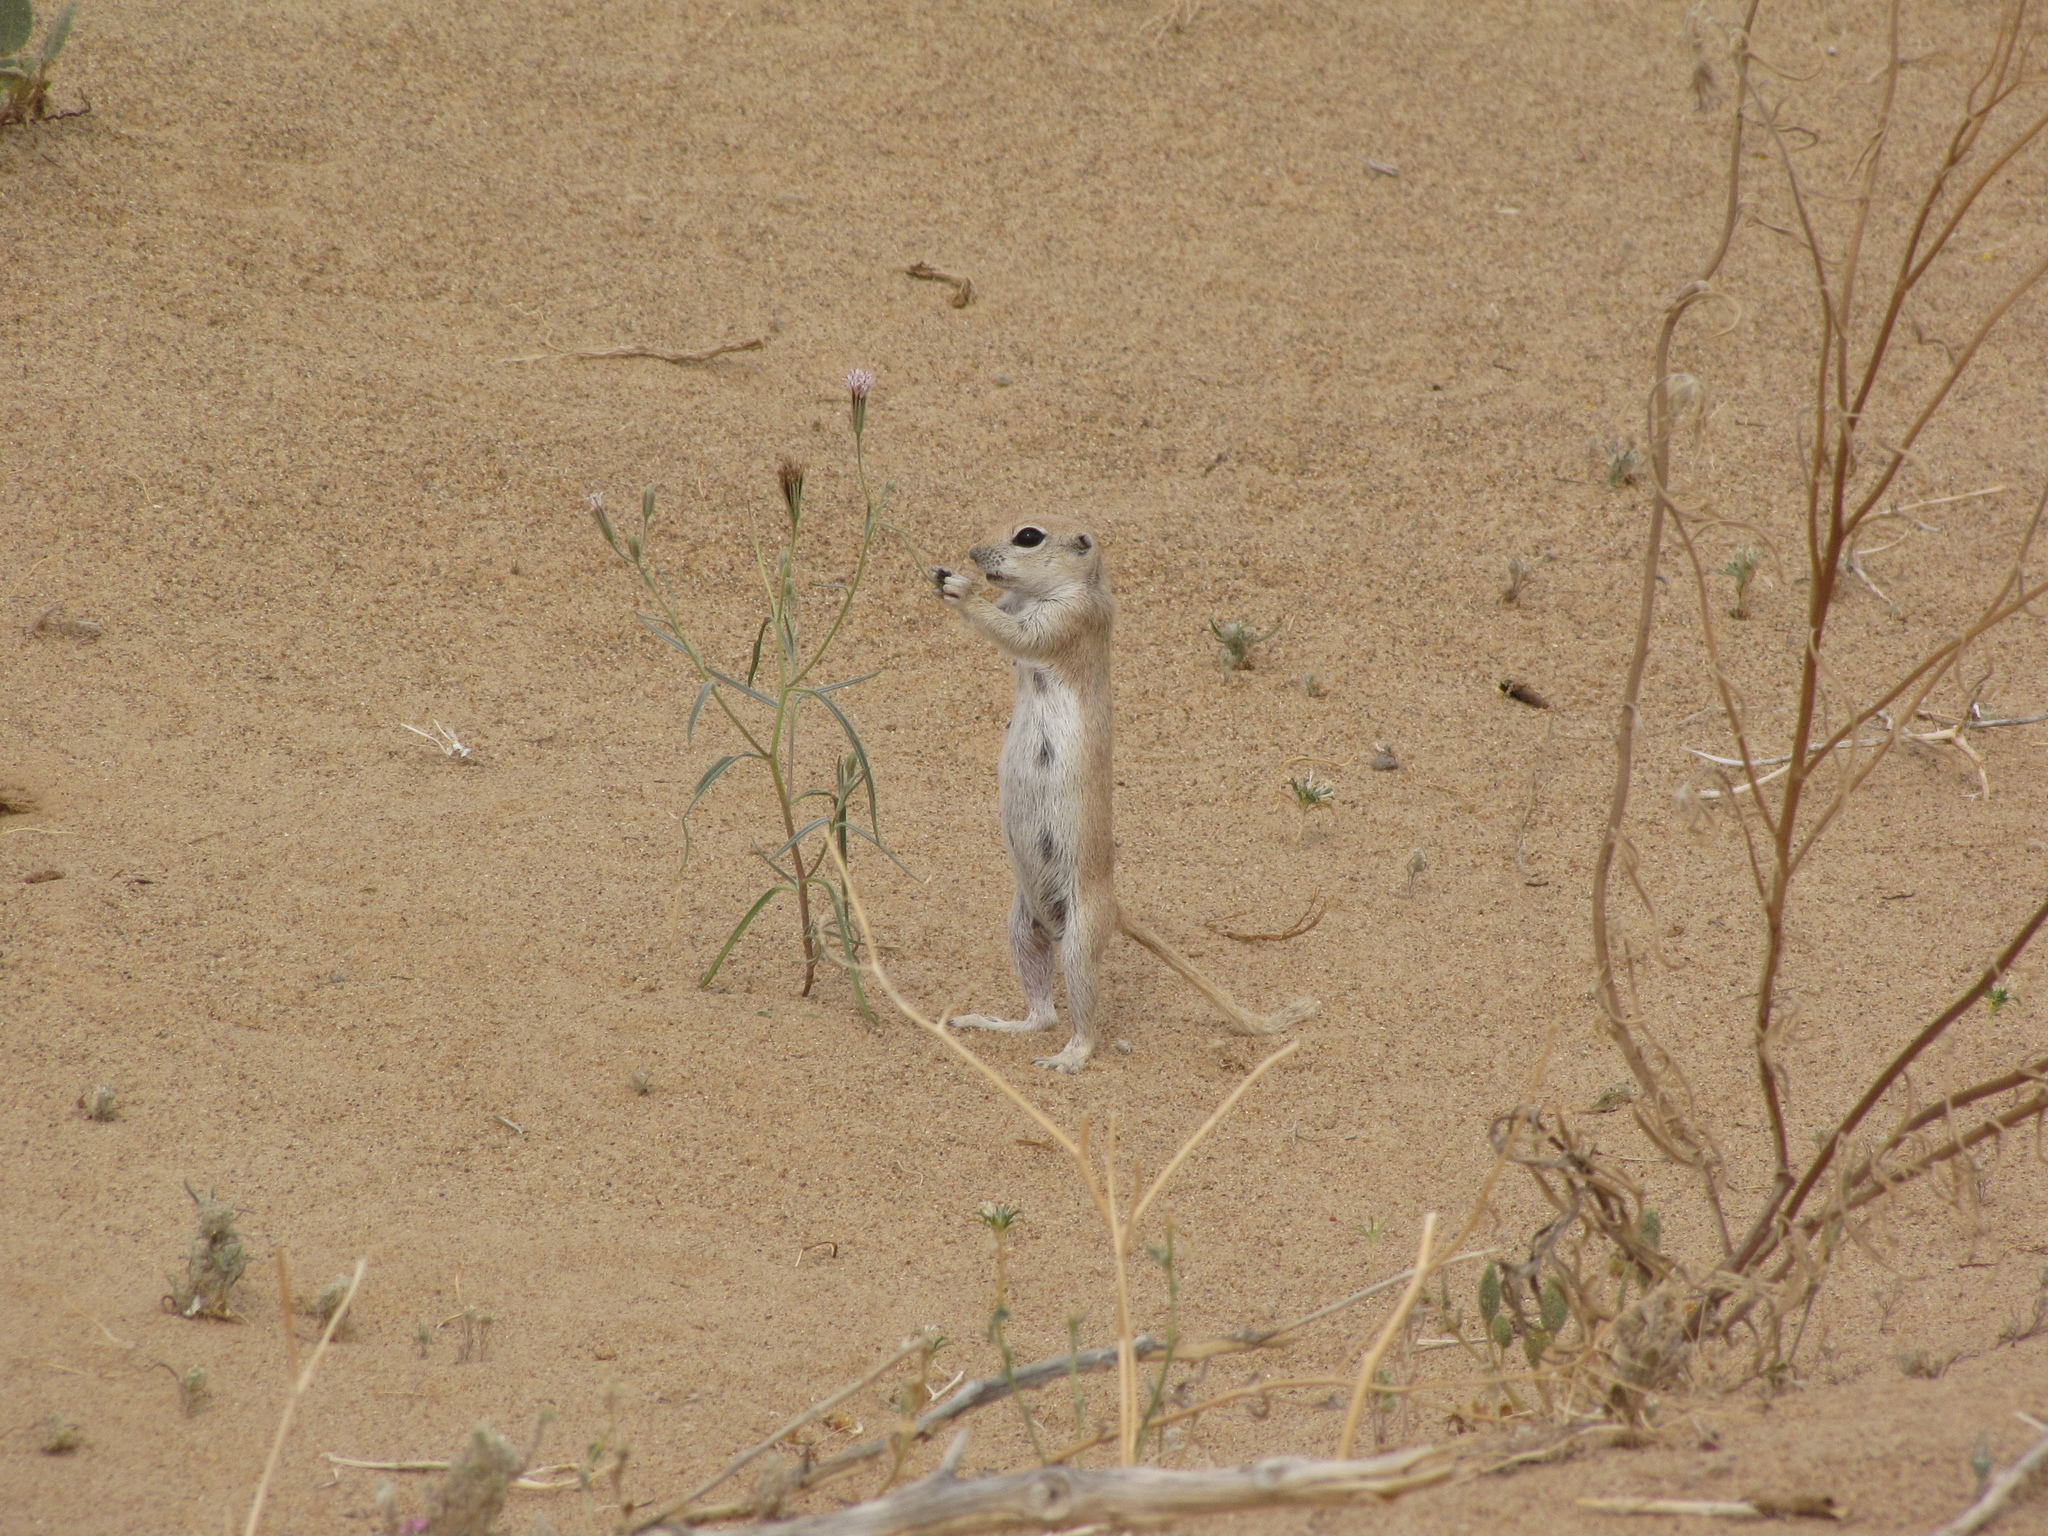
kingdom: Animalia
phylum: Chordata
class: Mammalia
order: Rodentia
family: Sciuridae
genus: Xerospermophilus
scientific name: Xerospermophilus tereticaudus
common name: Round-tailed ground squirrel
